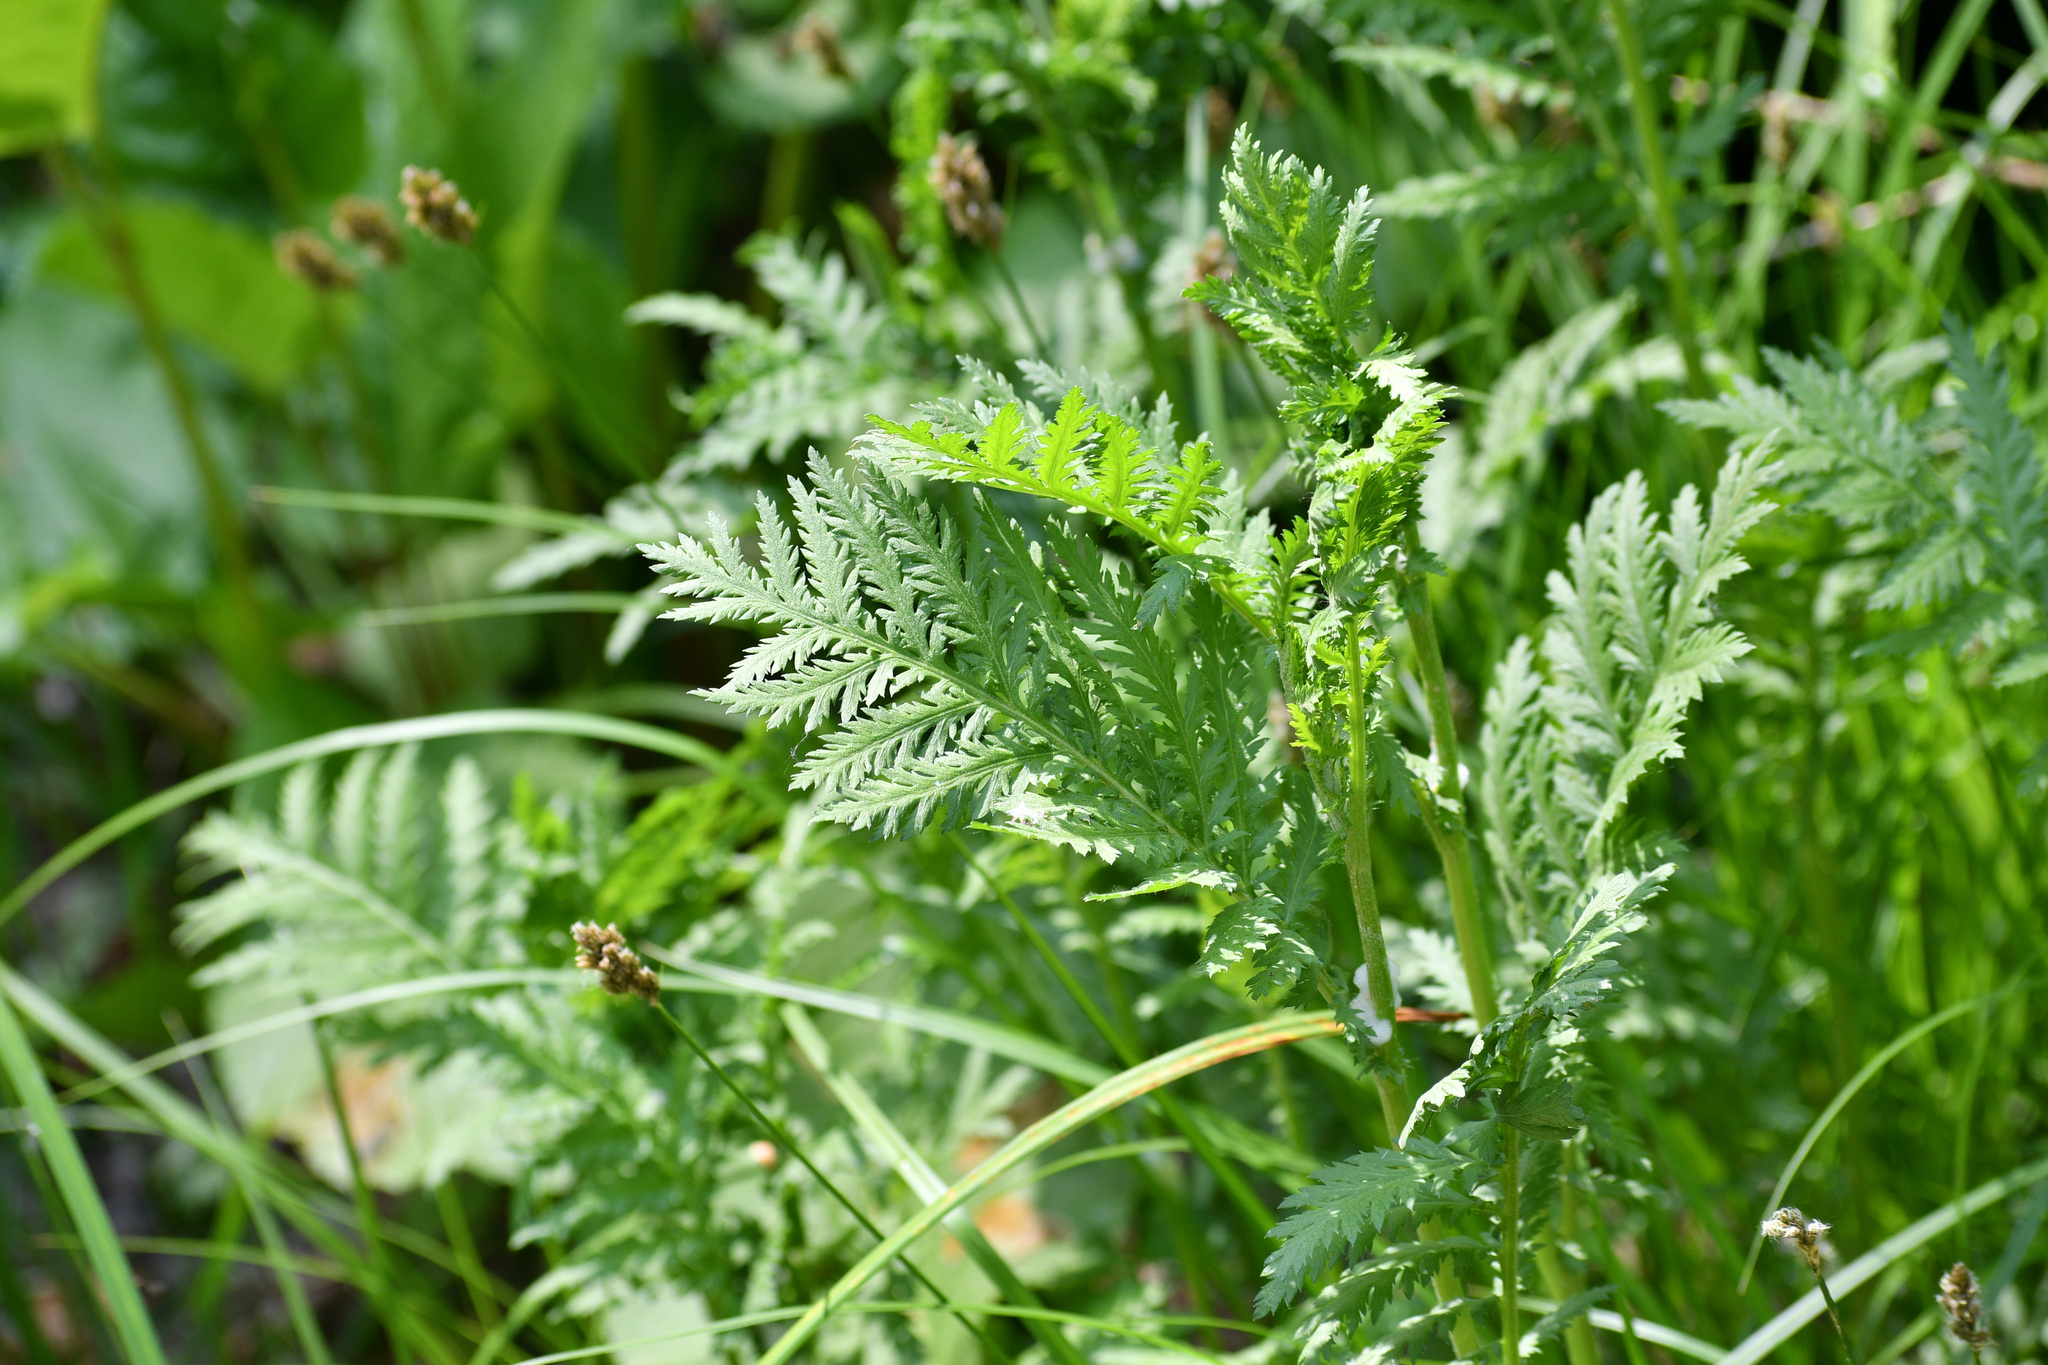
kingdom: Plantae
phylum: Tracheophyta
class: Magnoliopsida
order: Asterales
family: Asteraceae
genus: Tanacetum
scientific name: Tanacetum vulgare
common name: Common tansy
